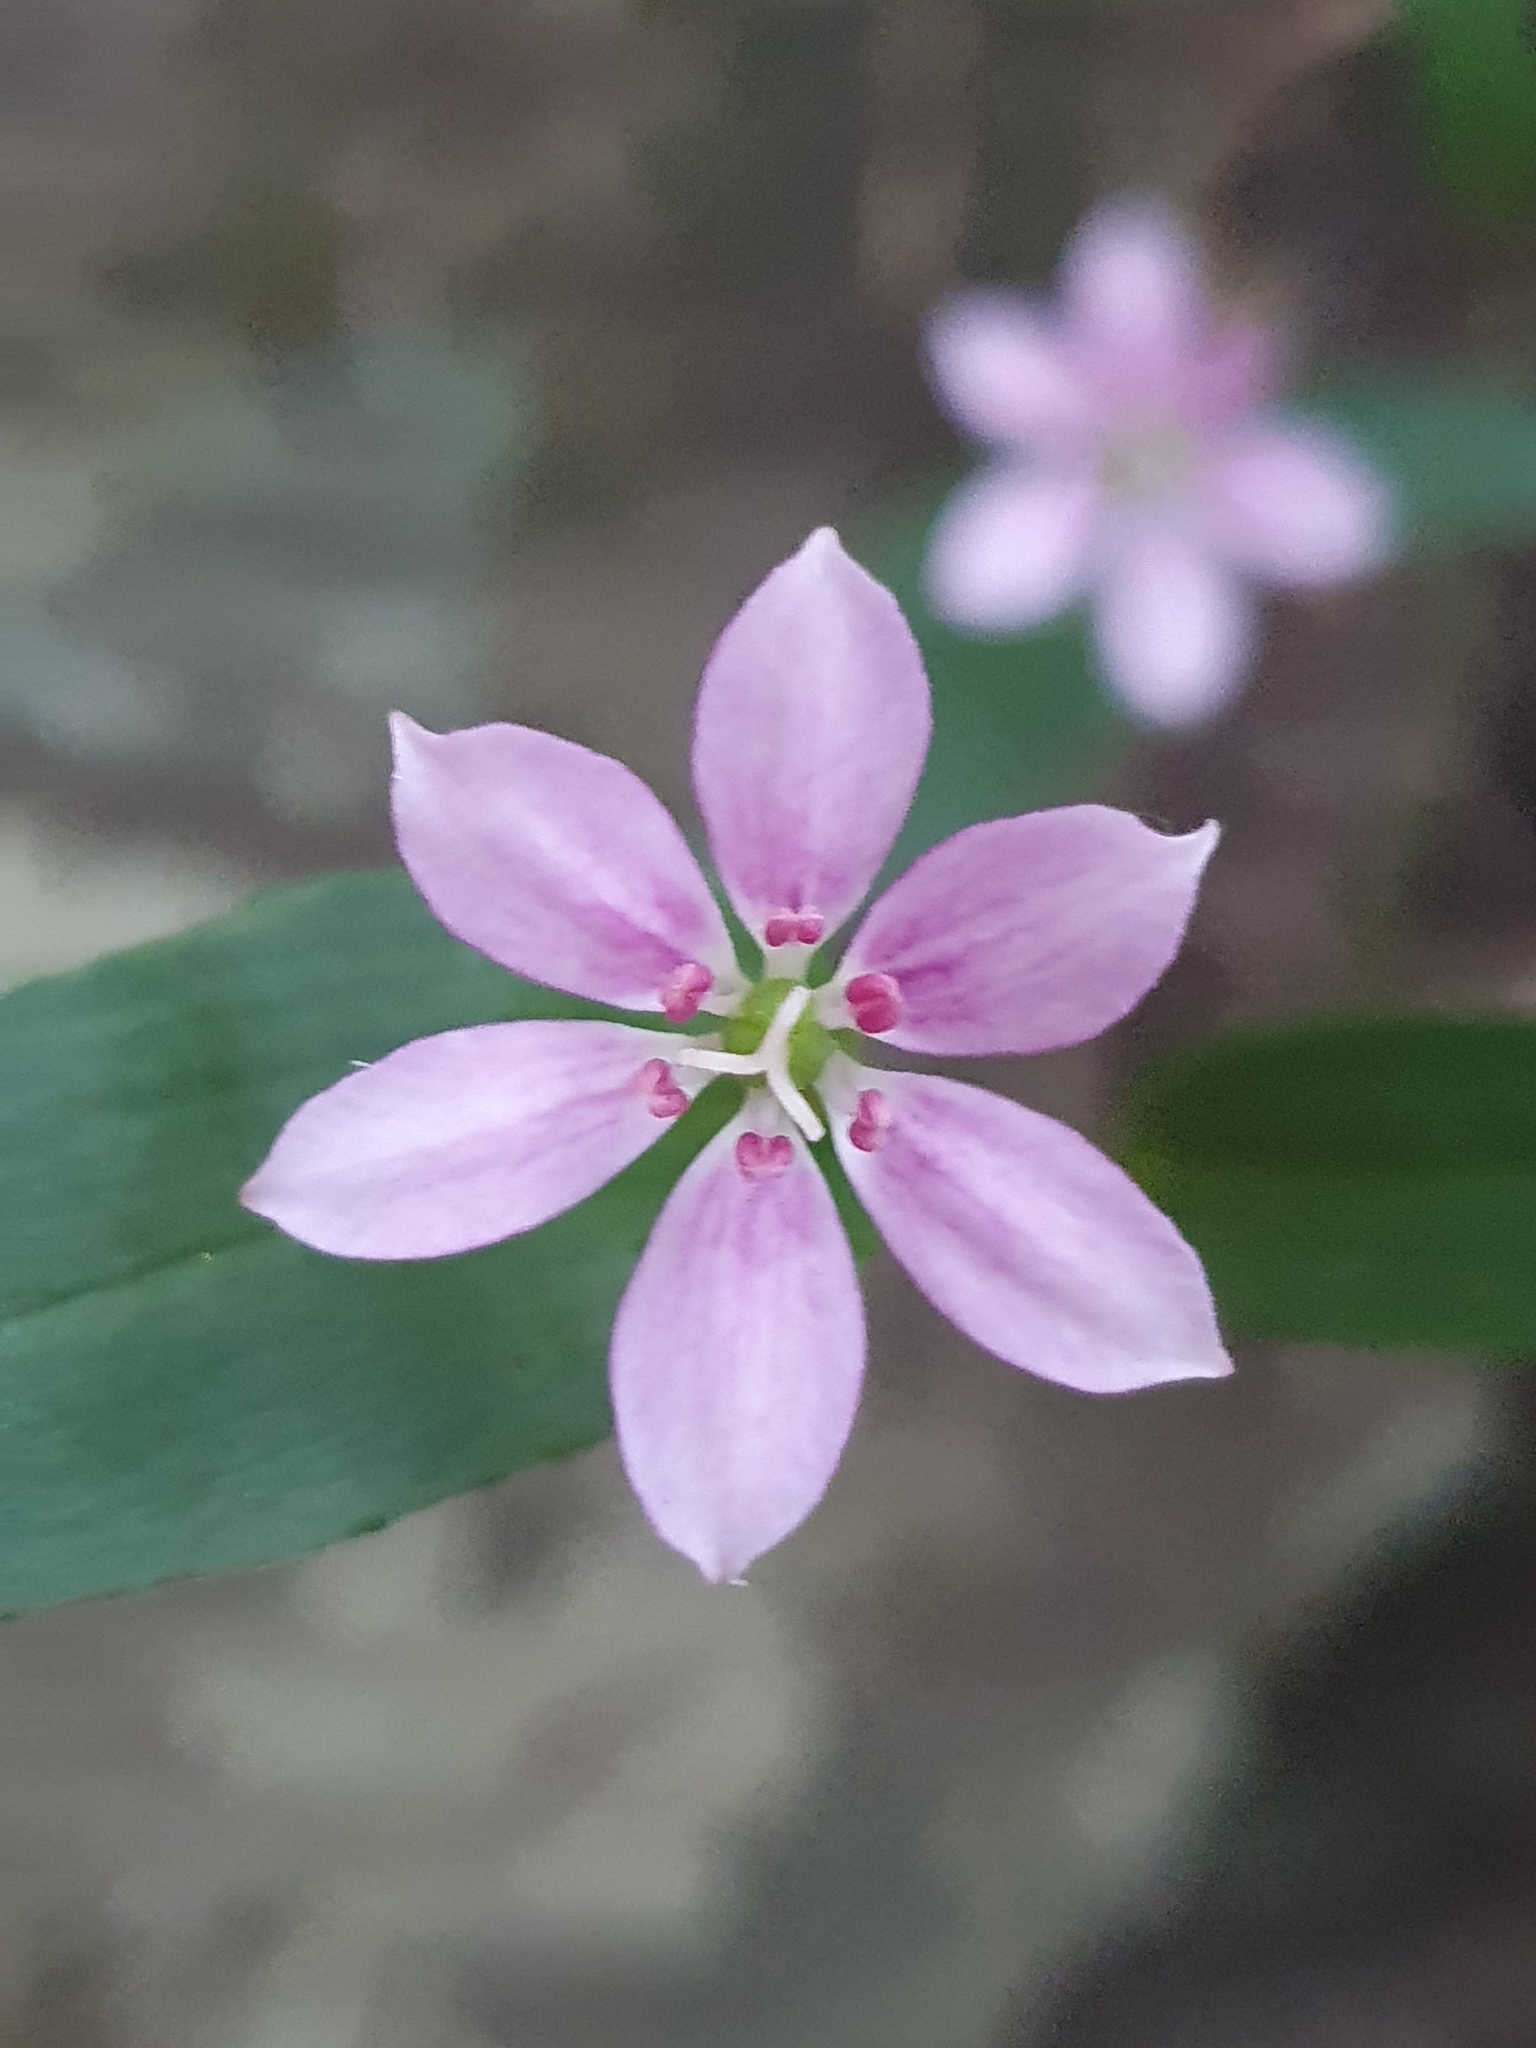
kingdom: Plantae
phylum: Tracheophyta
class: Liliopsida
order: Liliales
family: Colchicaceae
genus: Schelhammera
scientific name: Schelhammera undulata
